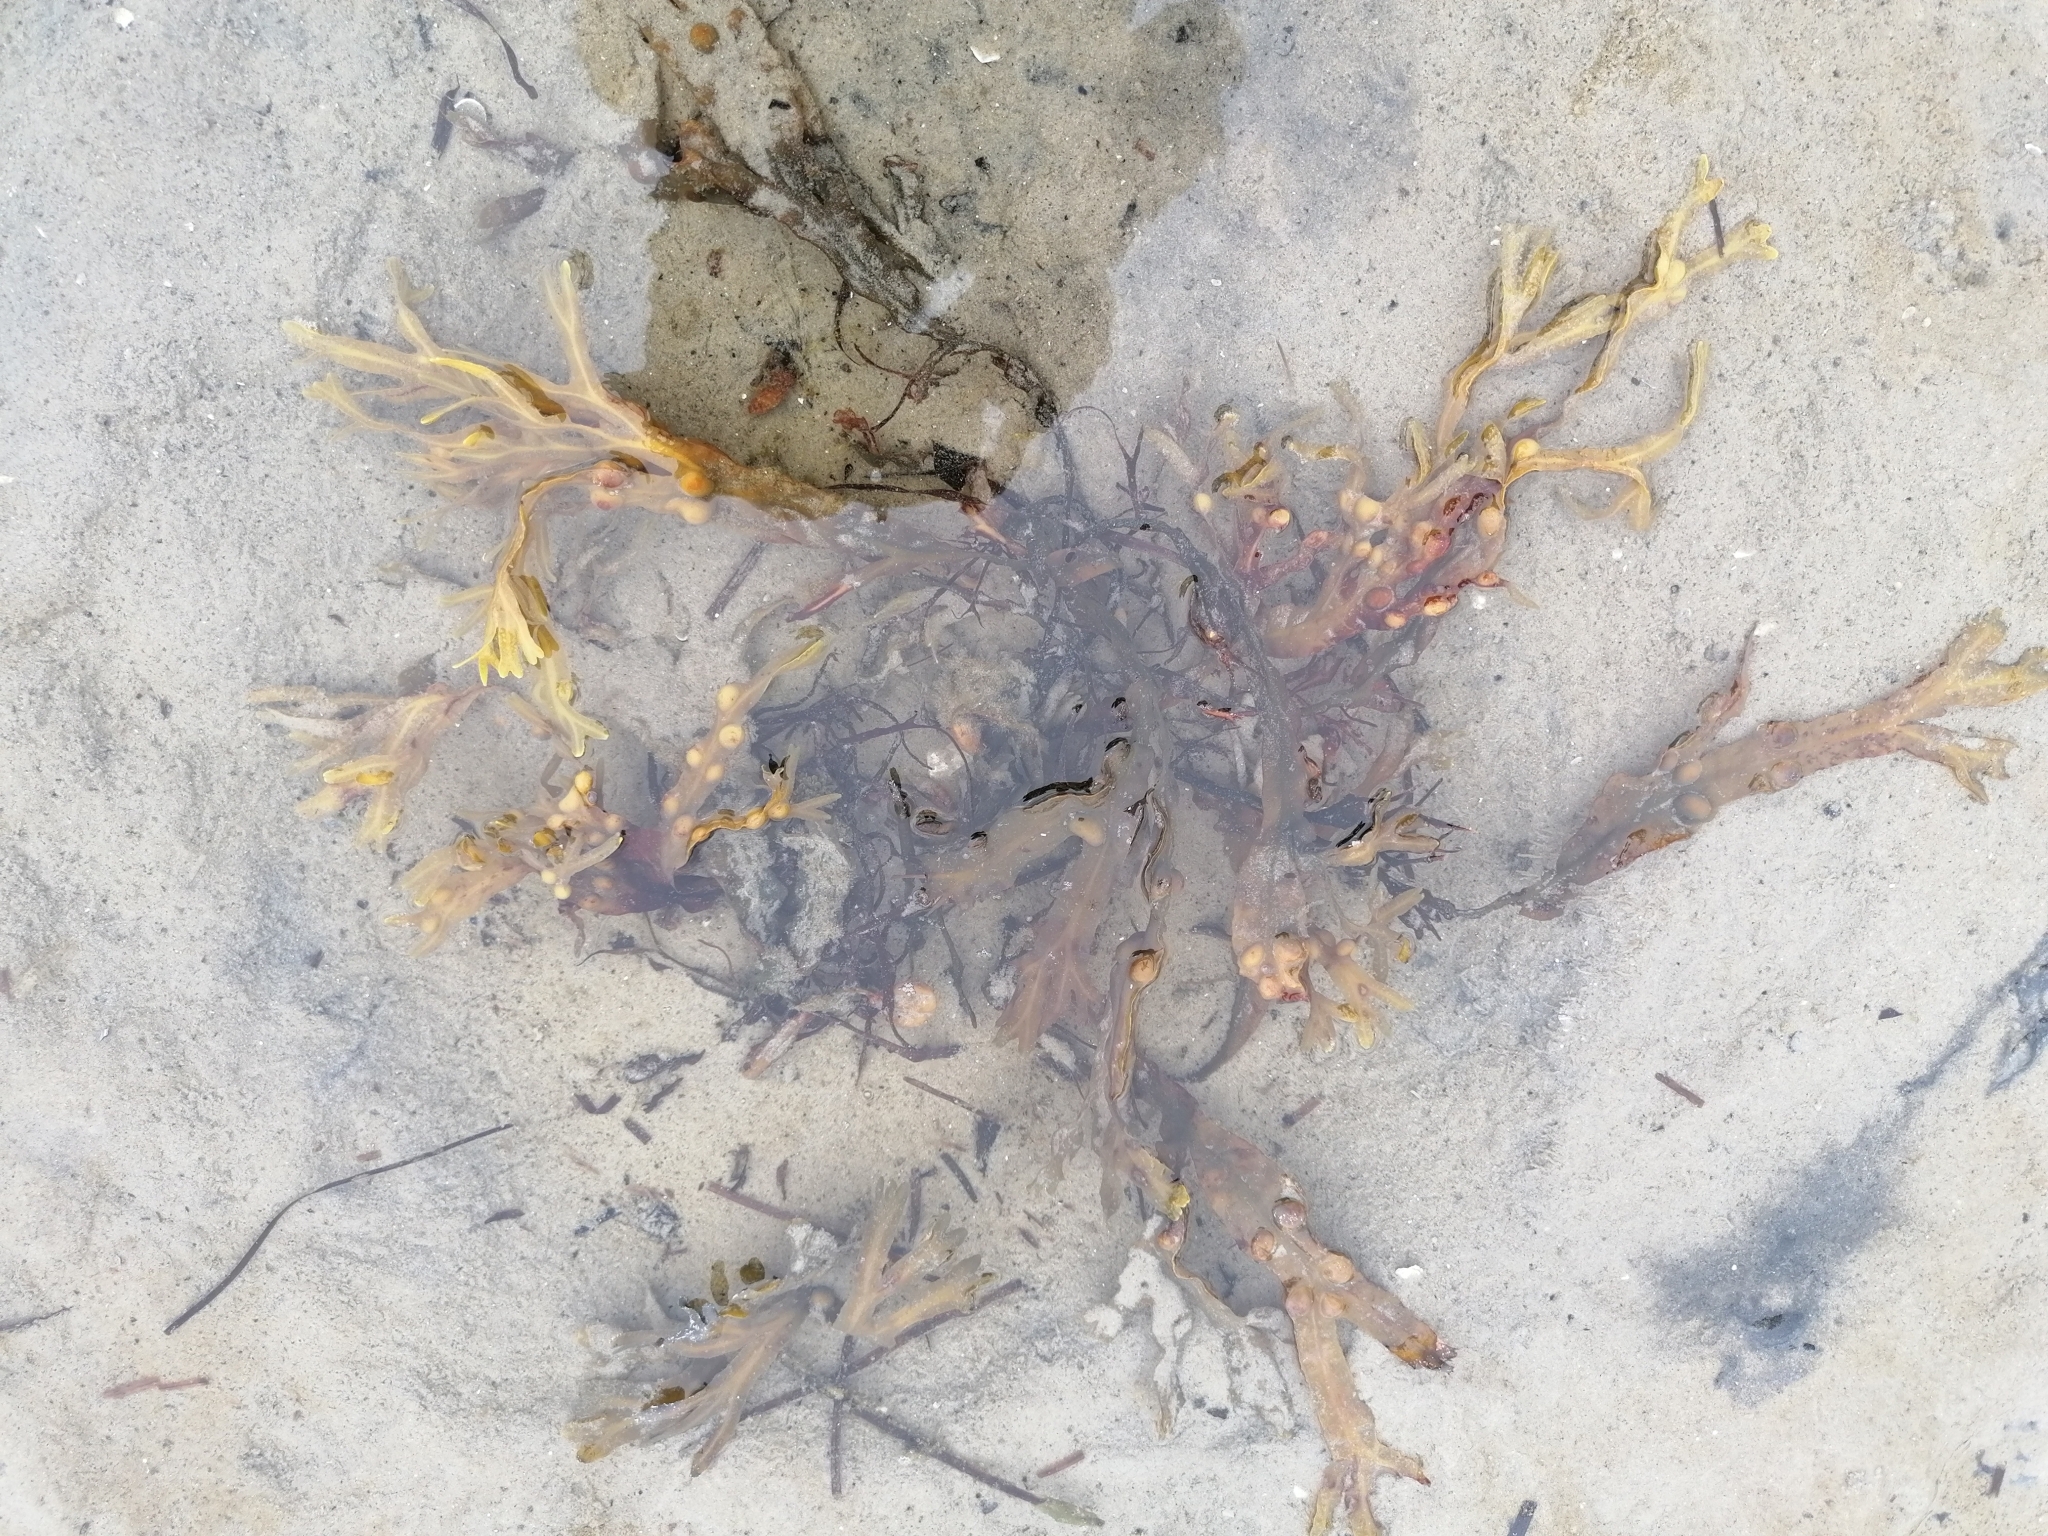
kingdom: Chromista
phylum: Ochrophyta
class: Phaeophyceae
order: Fucales
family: Fucaceae
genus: Fucus
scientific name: Fucus vesiculosus
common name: Bladder wrack
